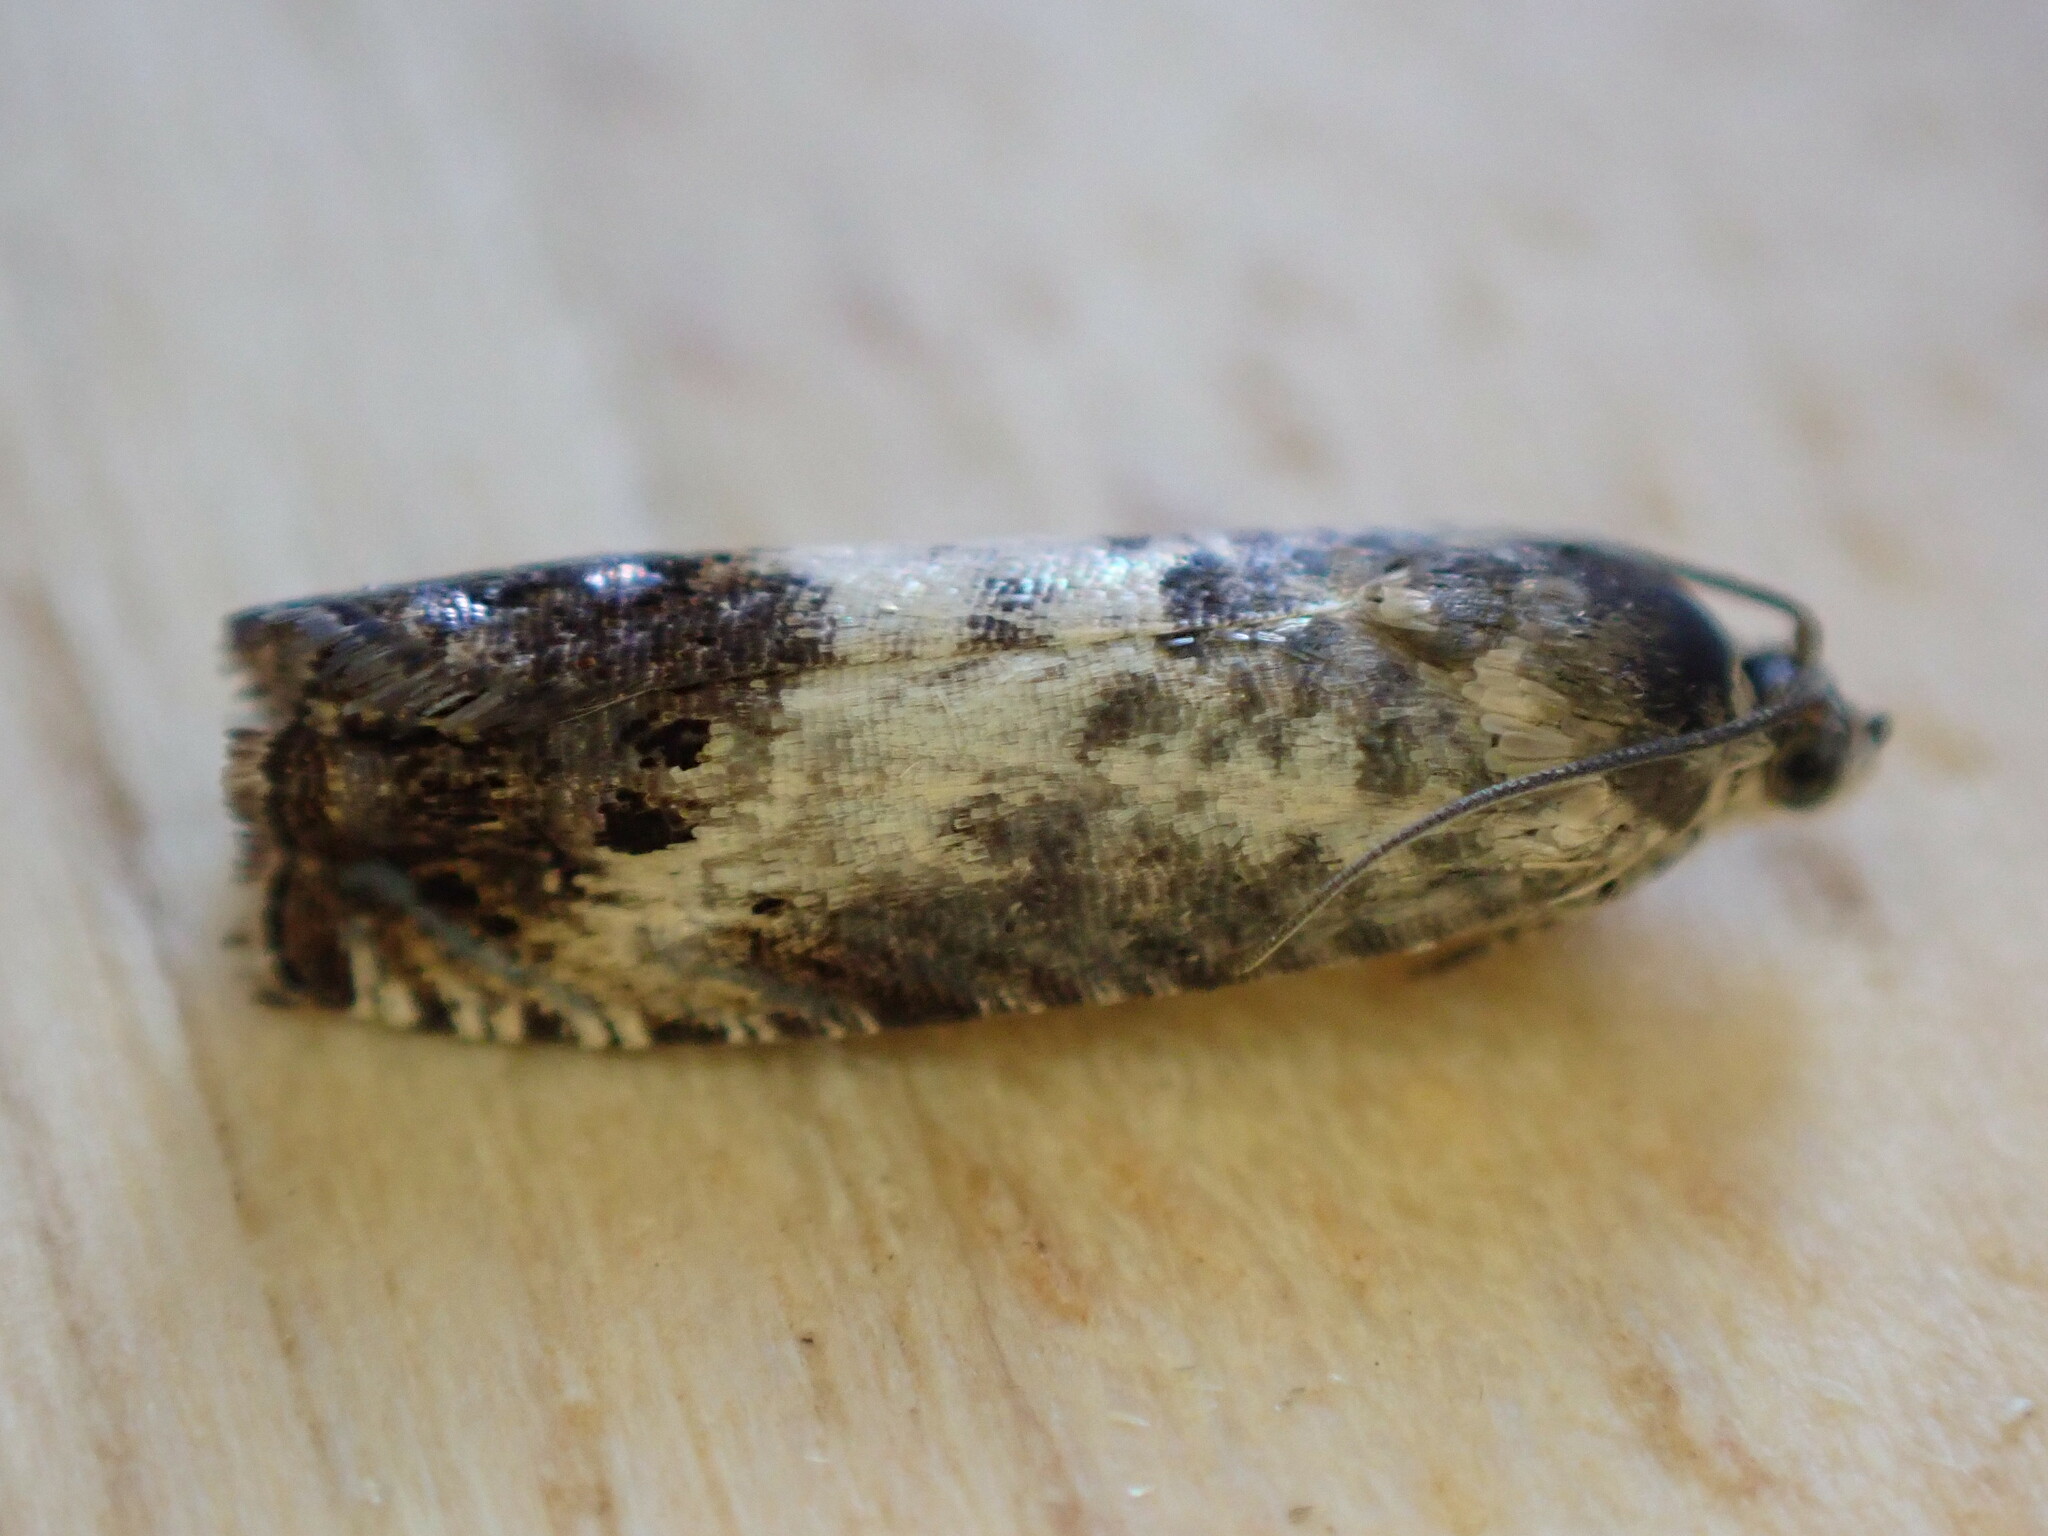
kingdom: Animalia
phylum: Arthropoda
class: Insecta
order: Lepidoptera
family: Tortricidae
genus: Pammene
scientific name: Pammene fasciana
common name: Acorn piercer
